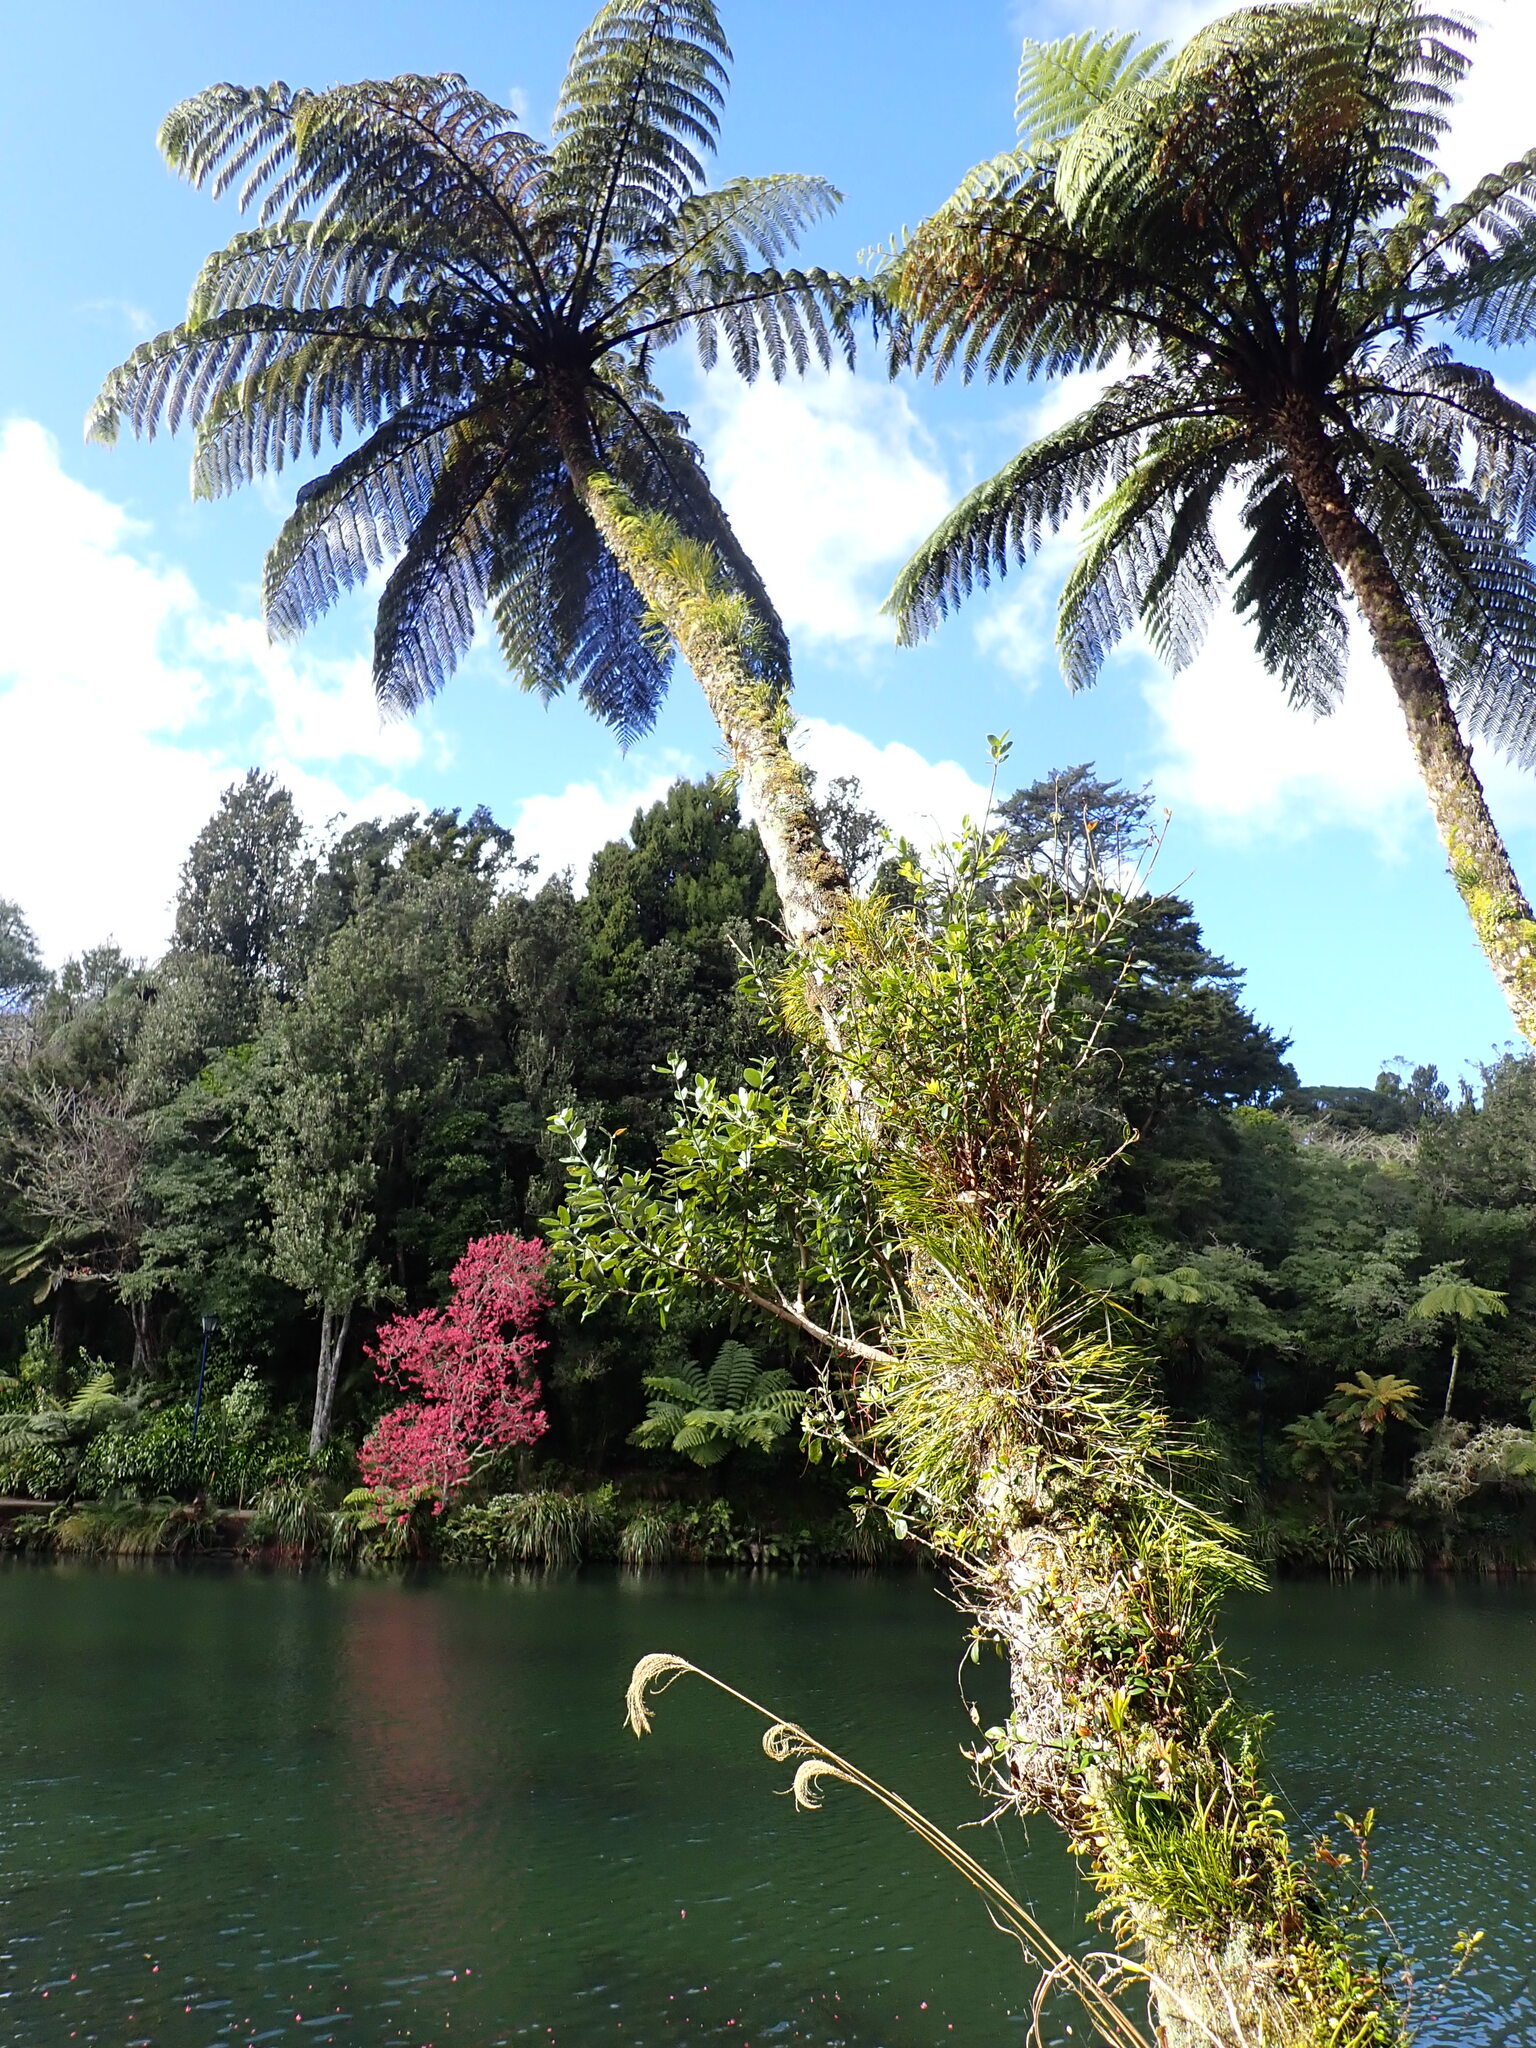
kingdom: Plantae
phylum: Tracheophyta
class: Polypodiopsida
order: Cyatheales
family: Cyatheaceae
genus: Sphaeropteris
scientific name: Sphaeropteris medullaris
